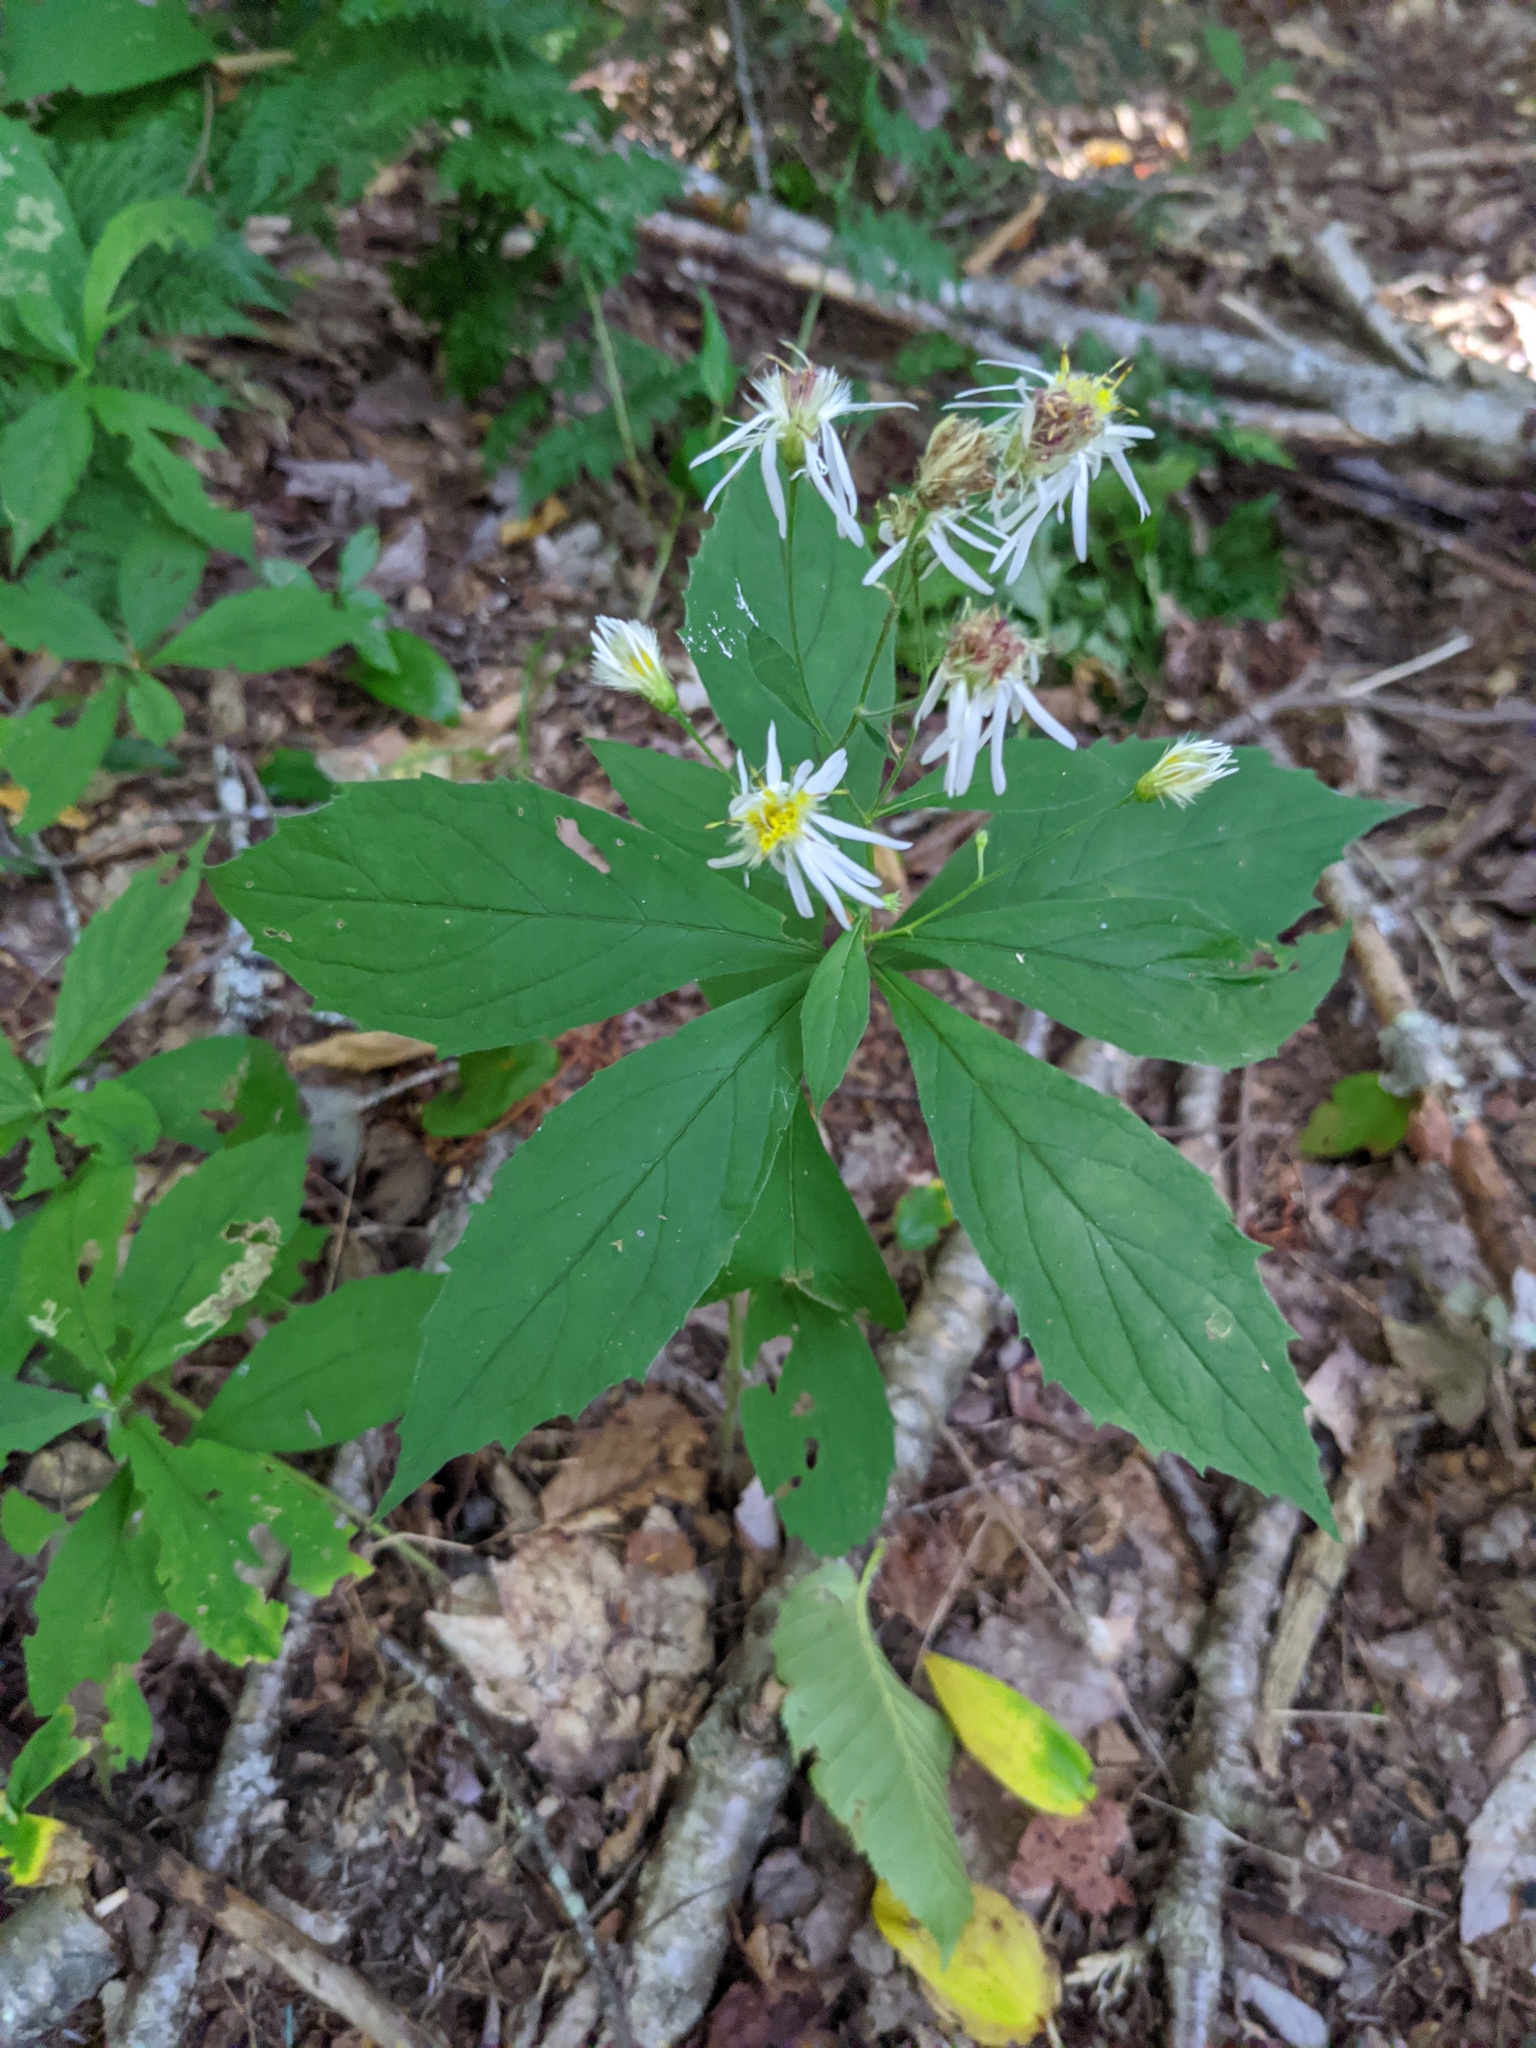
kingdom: Plantae
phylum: Tracheophyta
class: Magnoliopsida
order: Asterales
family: Asteraceae
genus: Oclemena
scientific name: Oclemena acuminata
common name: Mountain aster
